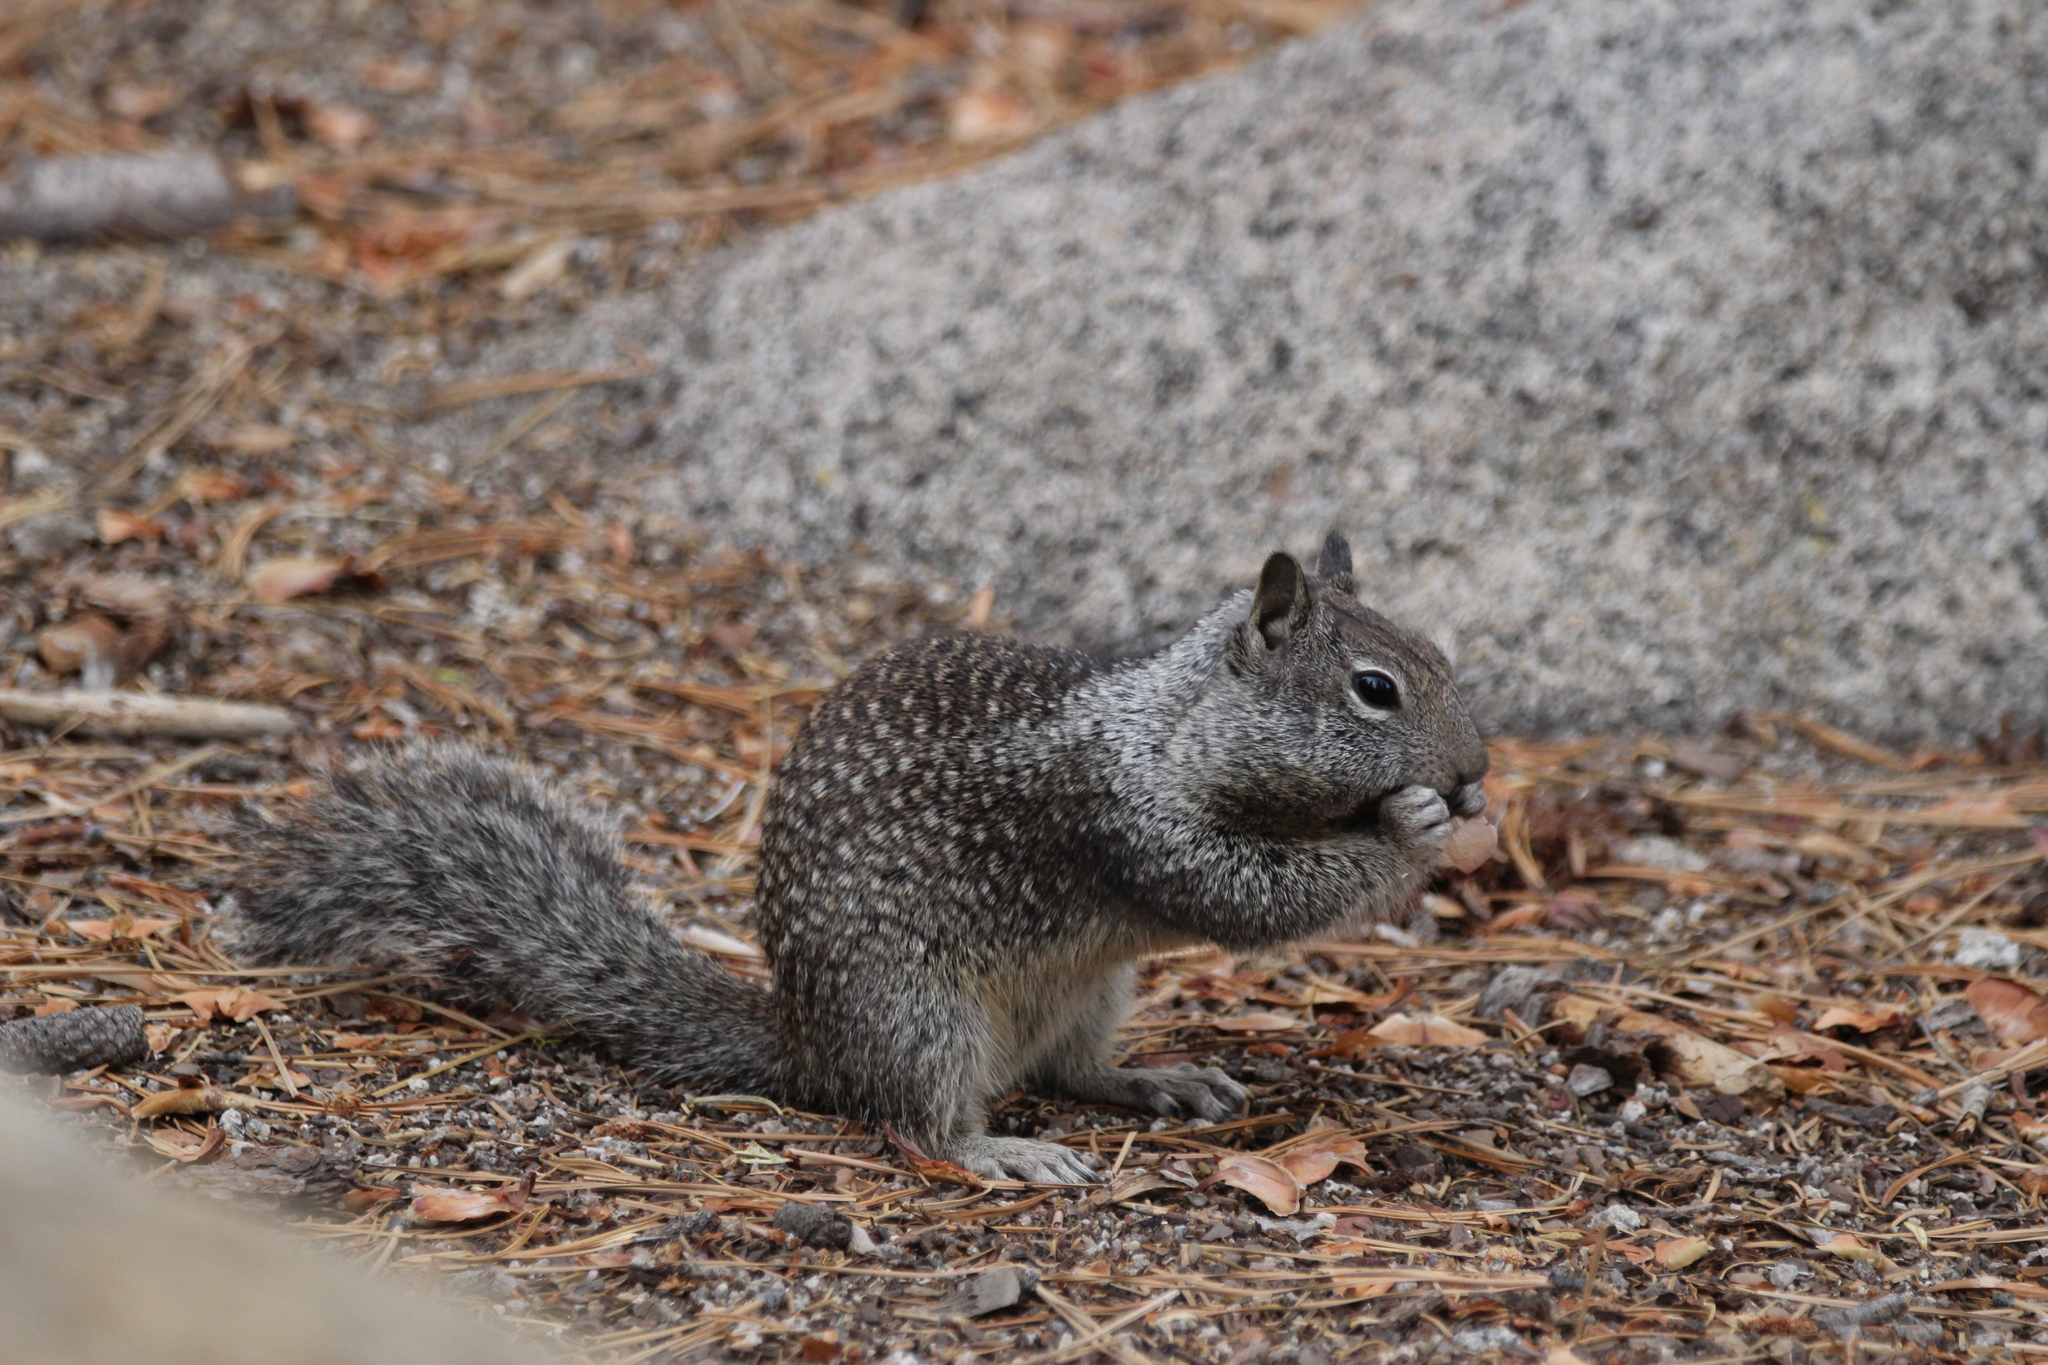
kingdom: Animalia
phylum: Chordata
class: Mammalia
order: Rodentia
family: Sciuridae
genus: Otospermophilus
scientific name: Otospermophilus beecheyi
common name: California ground squirrel
